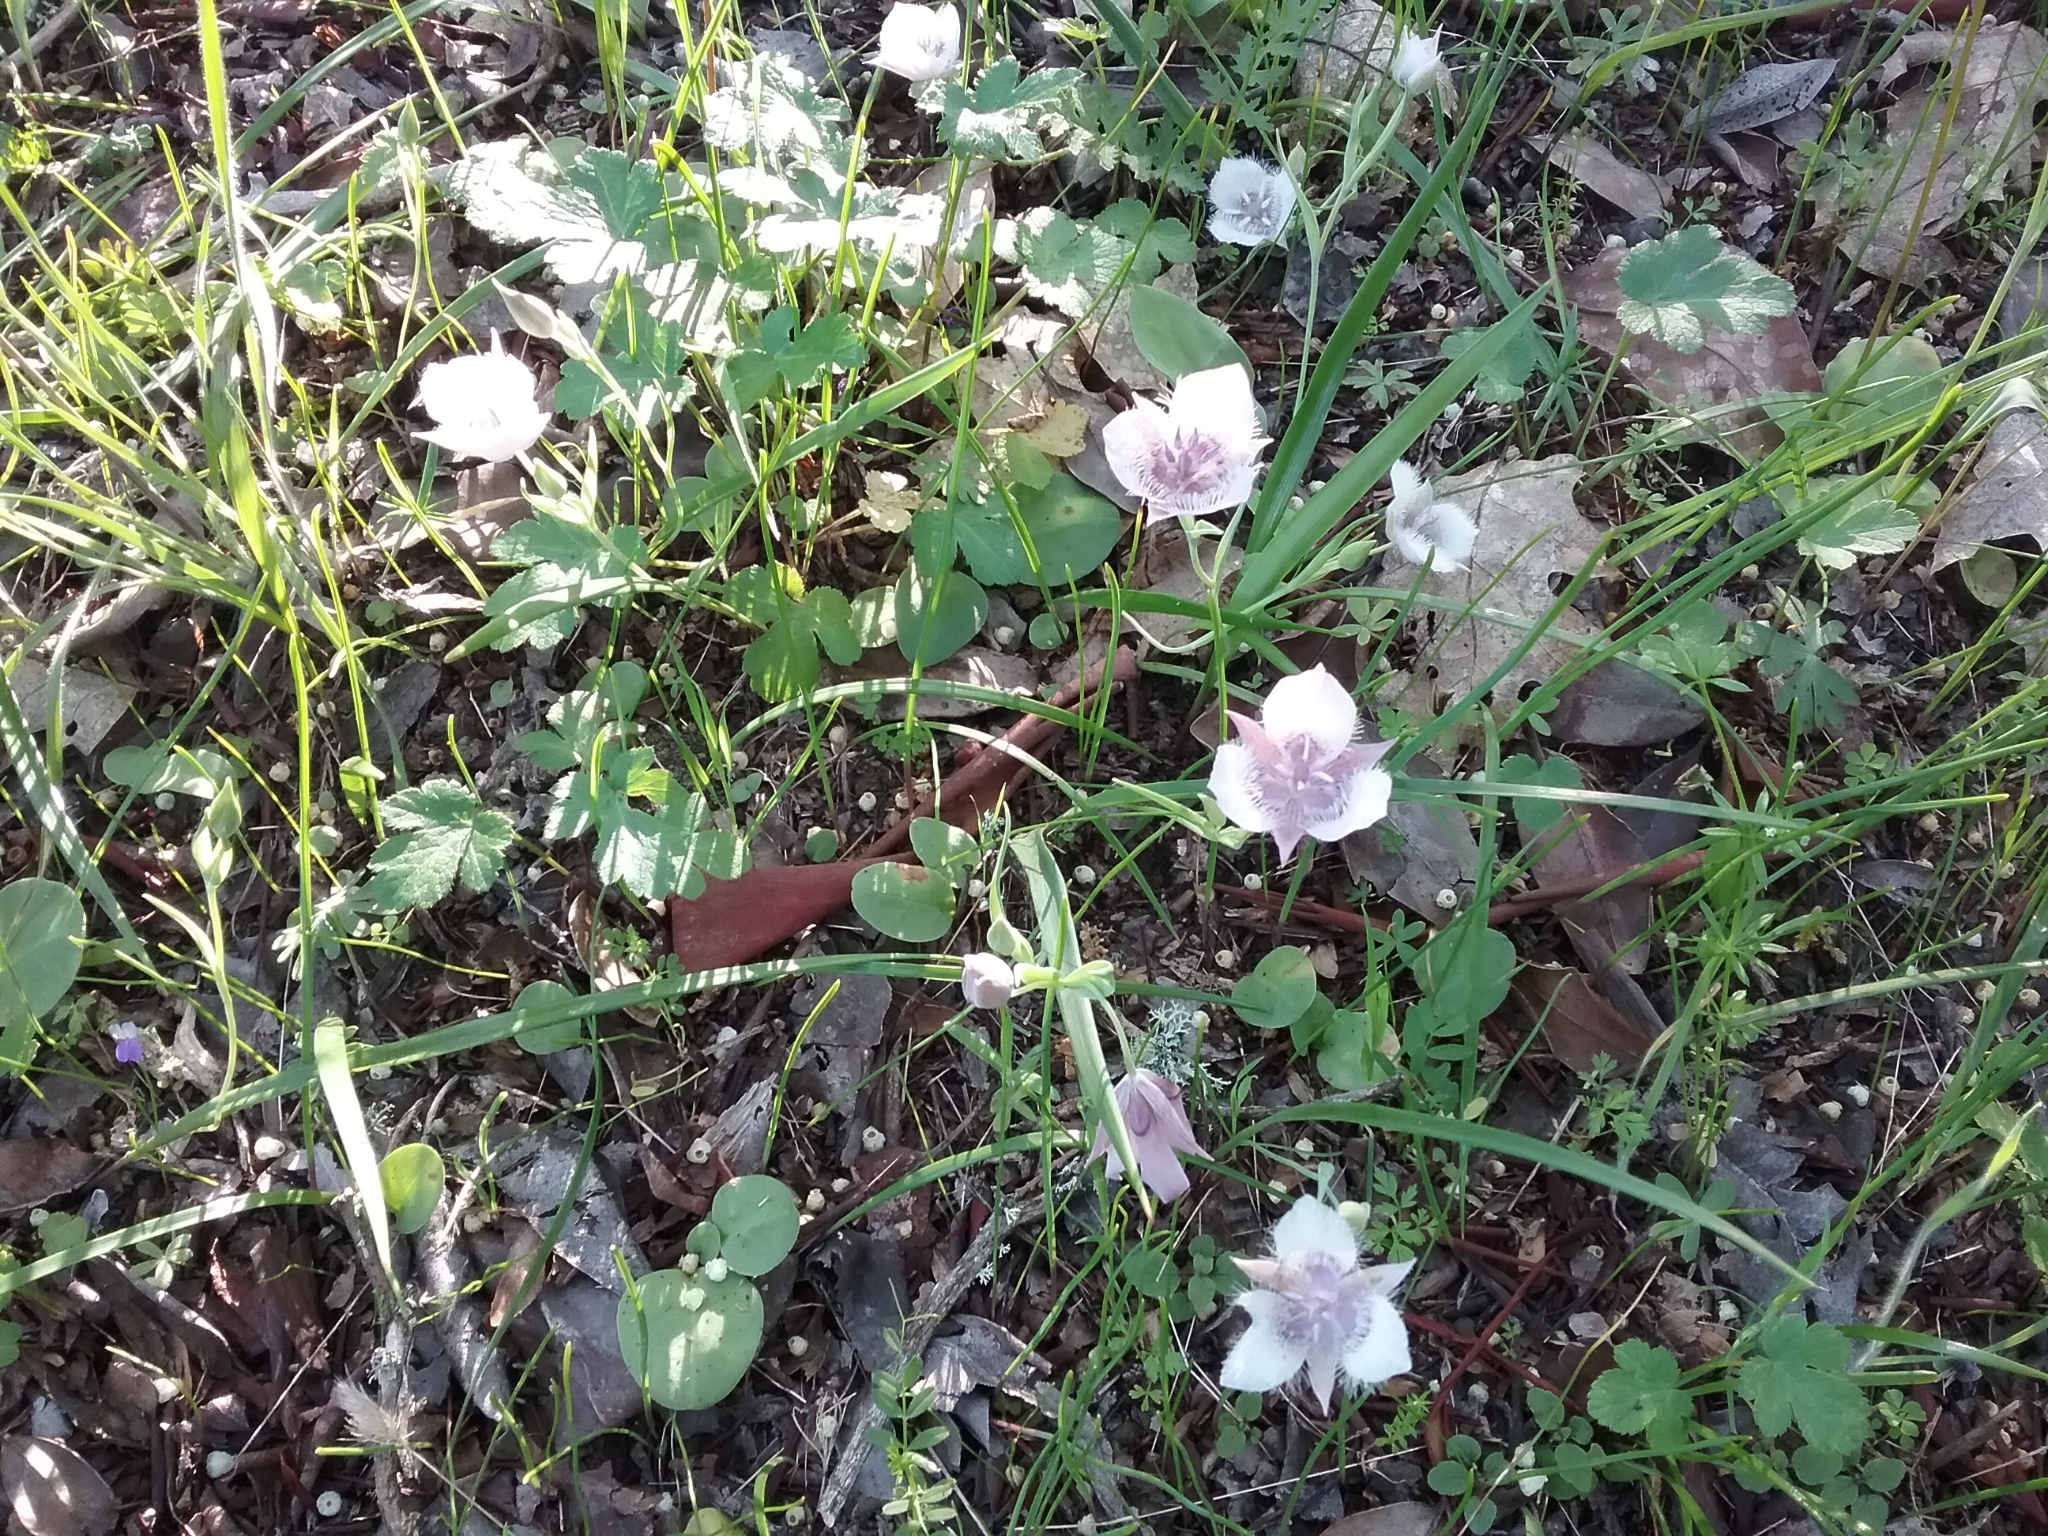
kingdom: Plantae
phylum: Tracheophyta
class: Liliopsida
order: Liliales
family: Liliaceae
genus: Calochortus
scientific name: Calochortus tolmiei
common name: Pussy-ears
